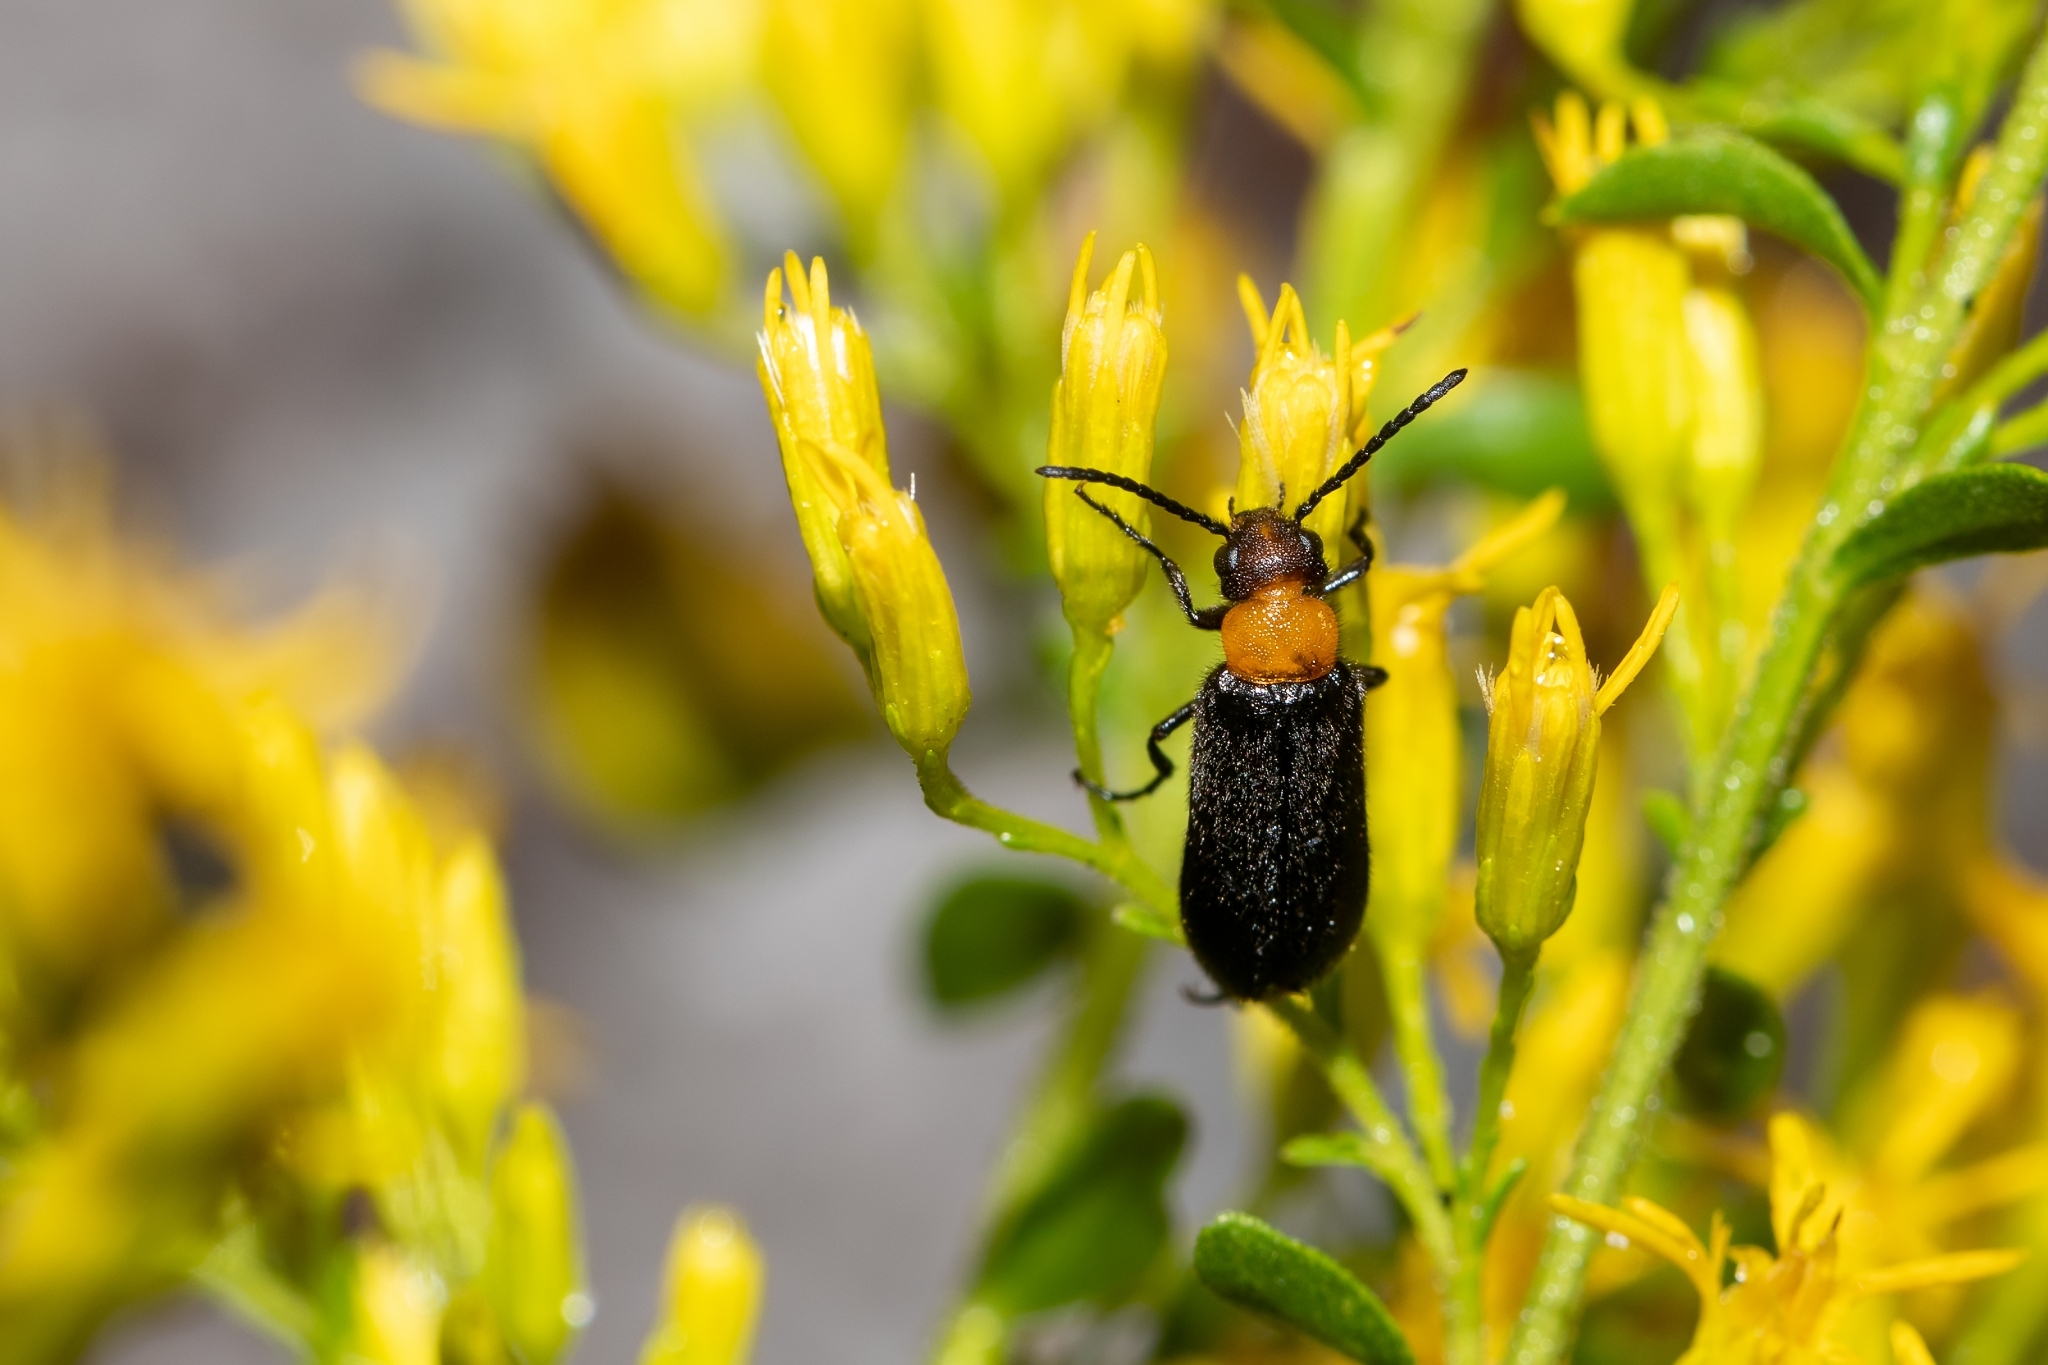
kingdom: Animalia
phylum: Arthropoda
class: Insecta
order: Coleoptera
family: Meloidae
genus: Nemognatha
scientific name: Nemognatha nemorensis
